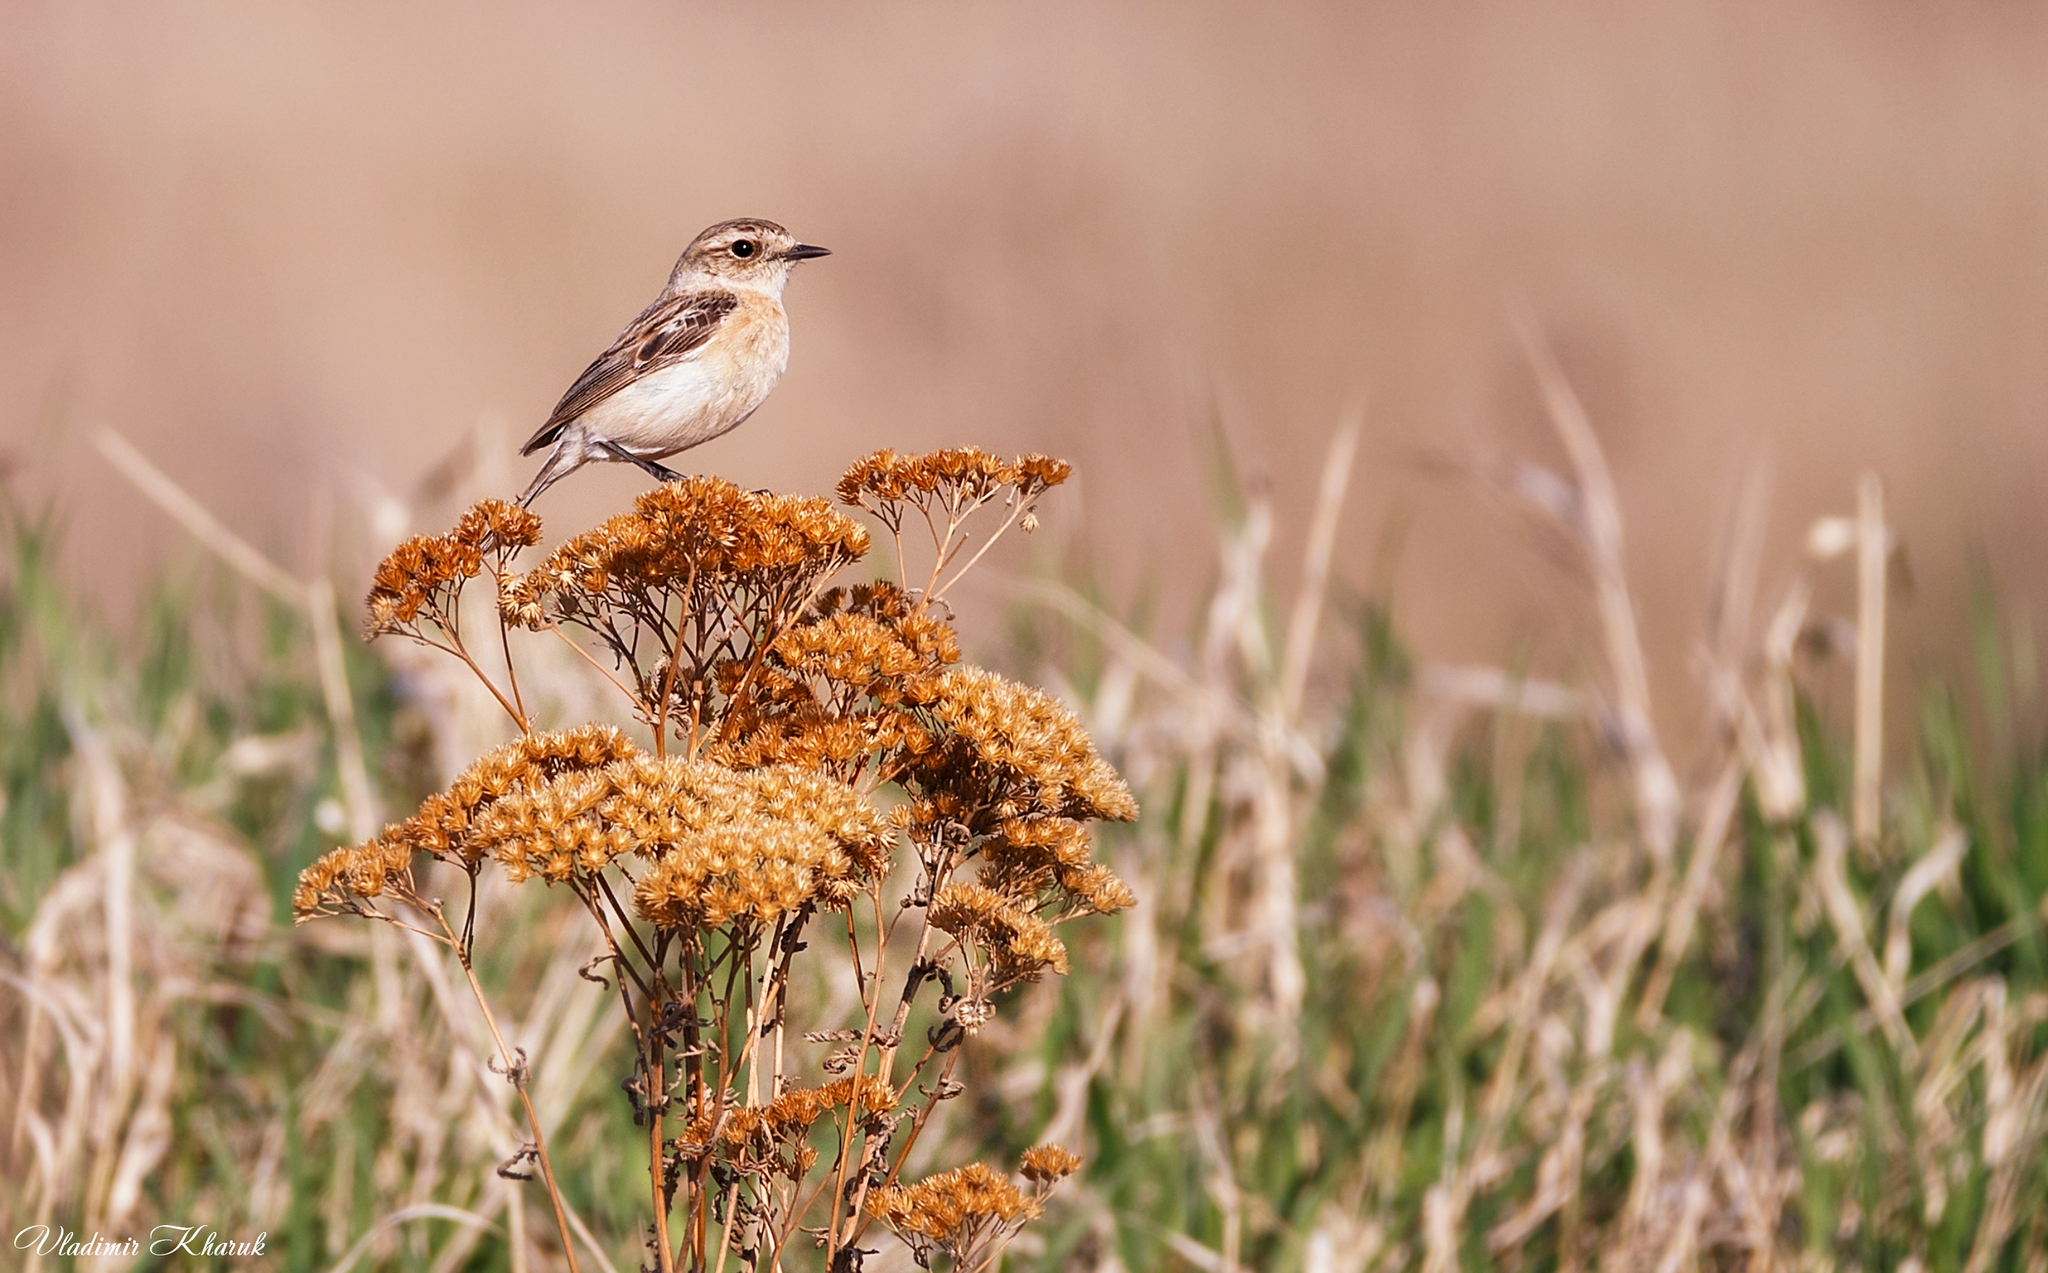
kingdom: Animalia
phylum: Chordata
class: Aves
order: Passeriformes
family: Muscicapidae
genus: Saxicola
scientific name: Saxicola maurus
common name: Siberian stonechat
